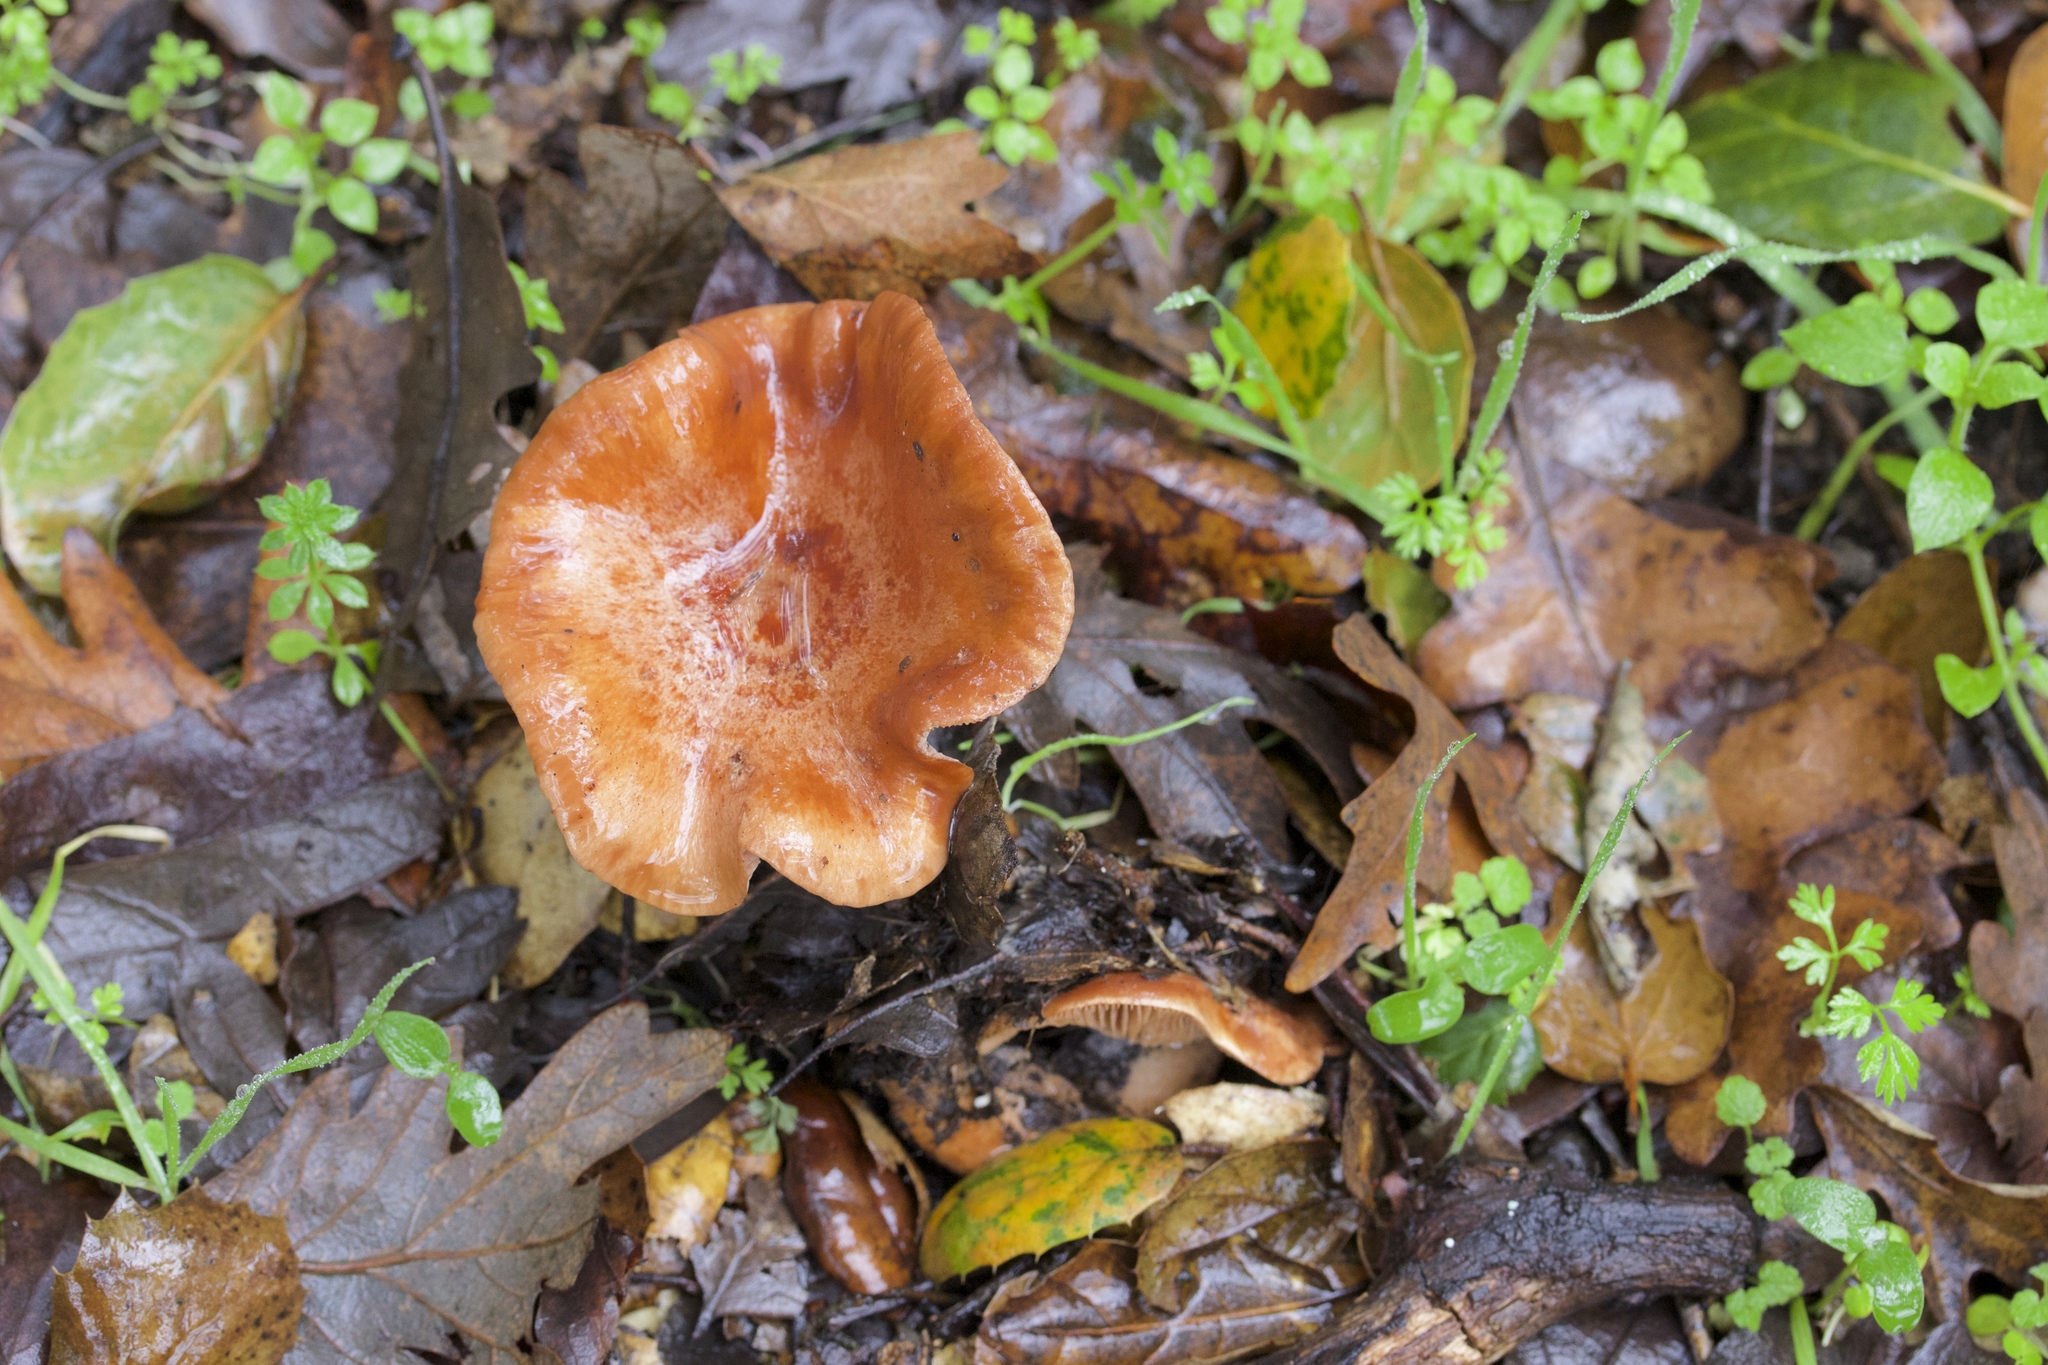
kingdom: Fungi
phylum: Basidiomycota
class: Agaricomycetes
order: Russulales
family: Russulaceae
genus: Lactarius
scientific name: Lactarius xanthogalactus
